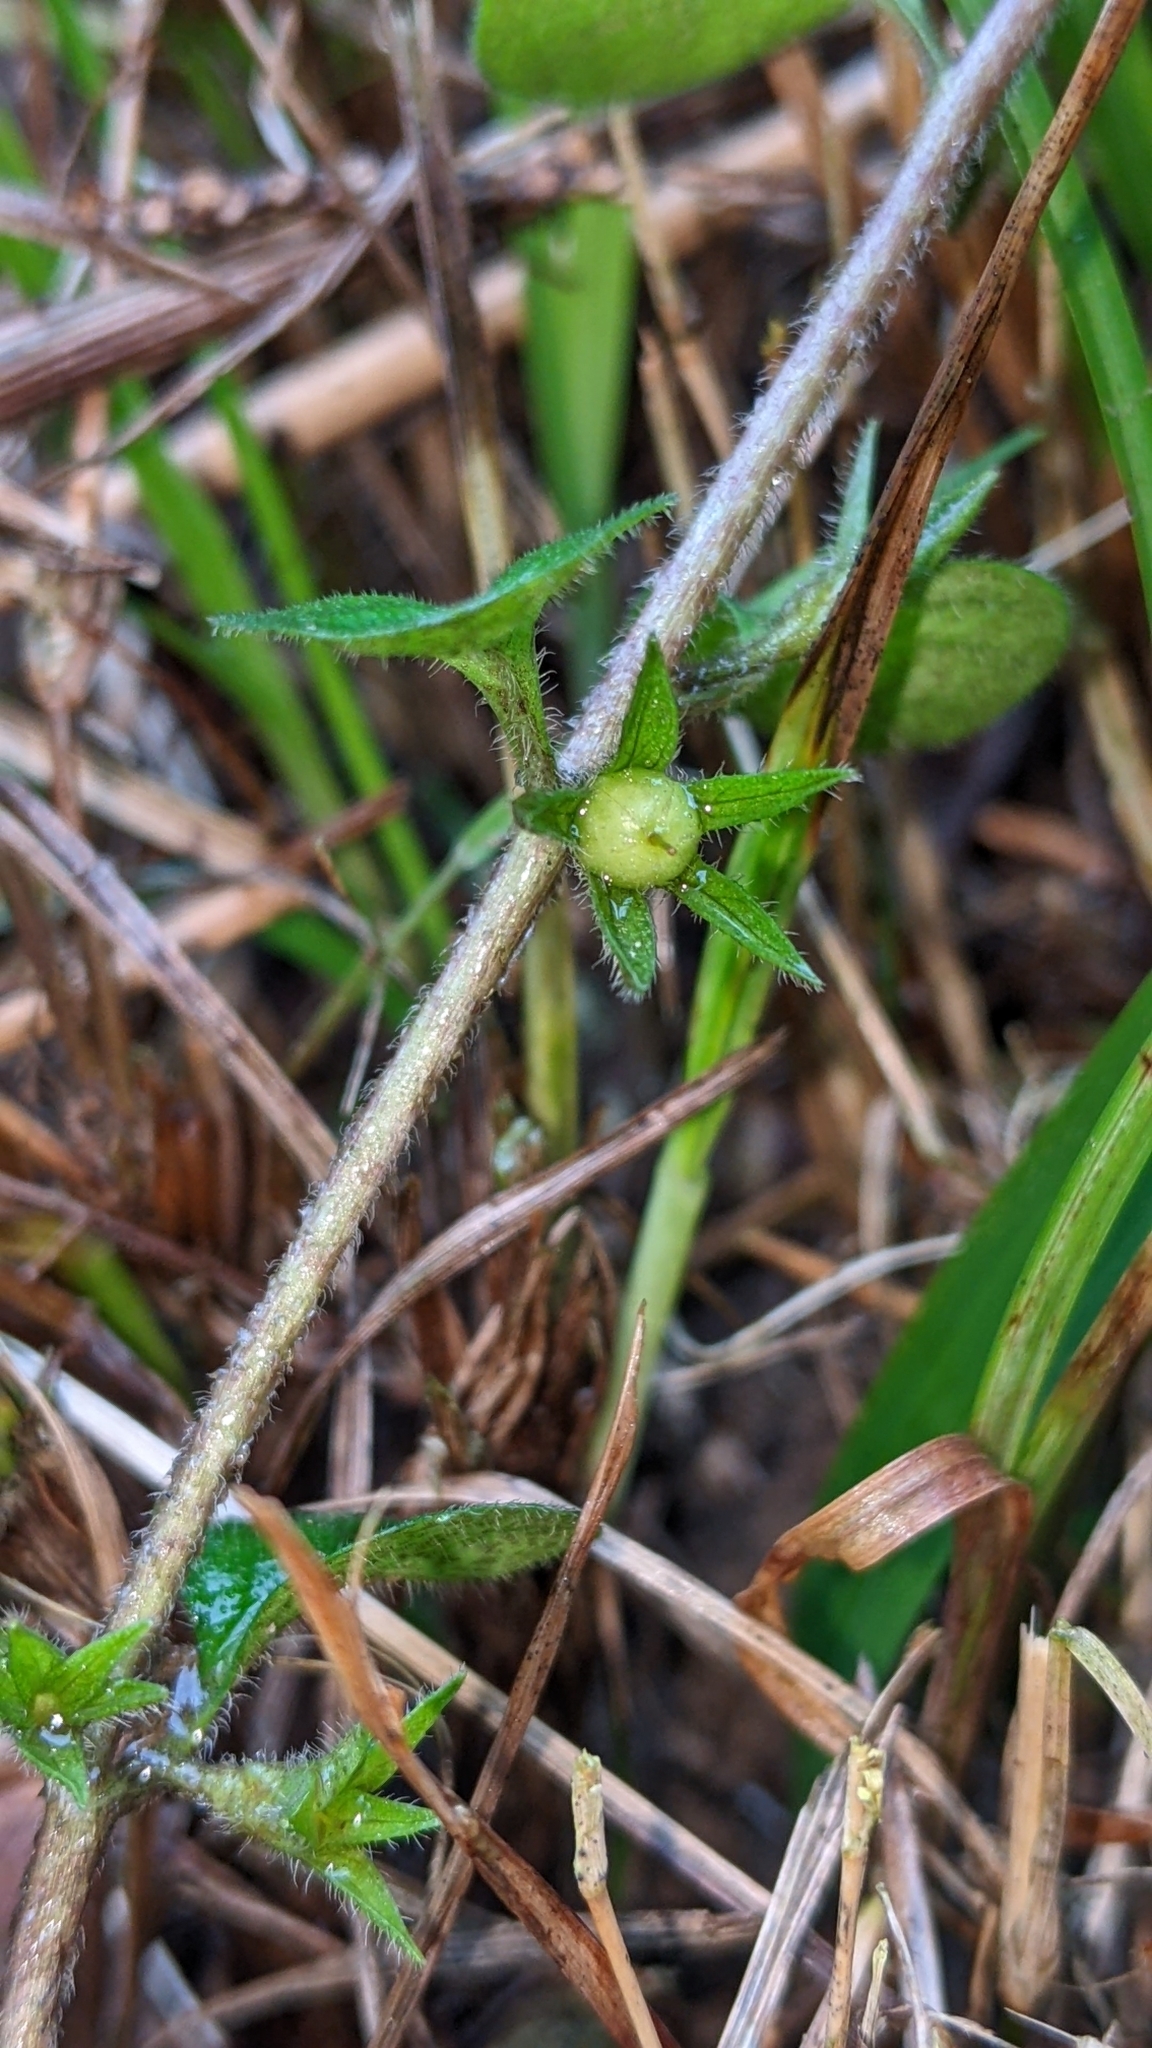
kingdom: Plantae
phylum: Tracheophyta
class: Magnoliopsida
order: Ericales
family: Primulaceae
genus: Lysimachia
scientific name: Lysimachia japonica
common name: Japanese yellow loosestrife
